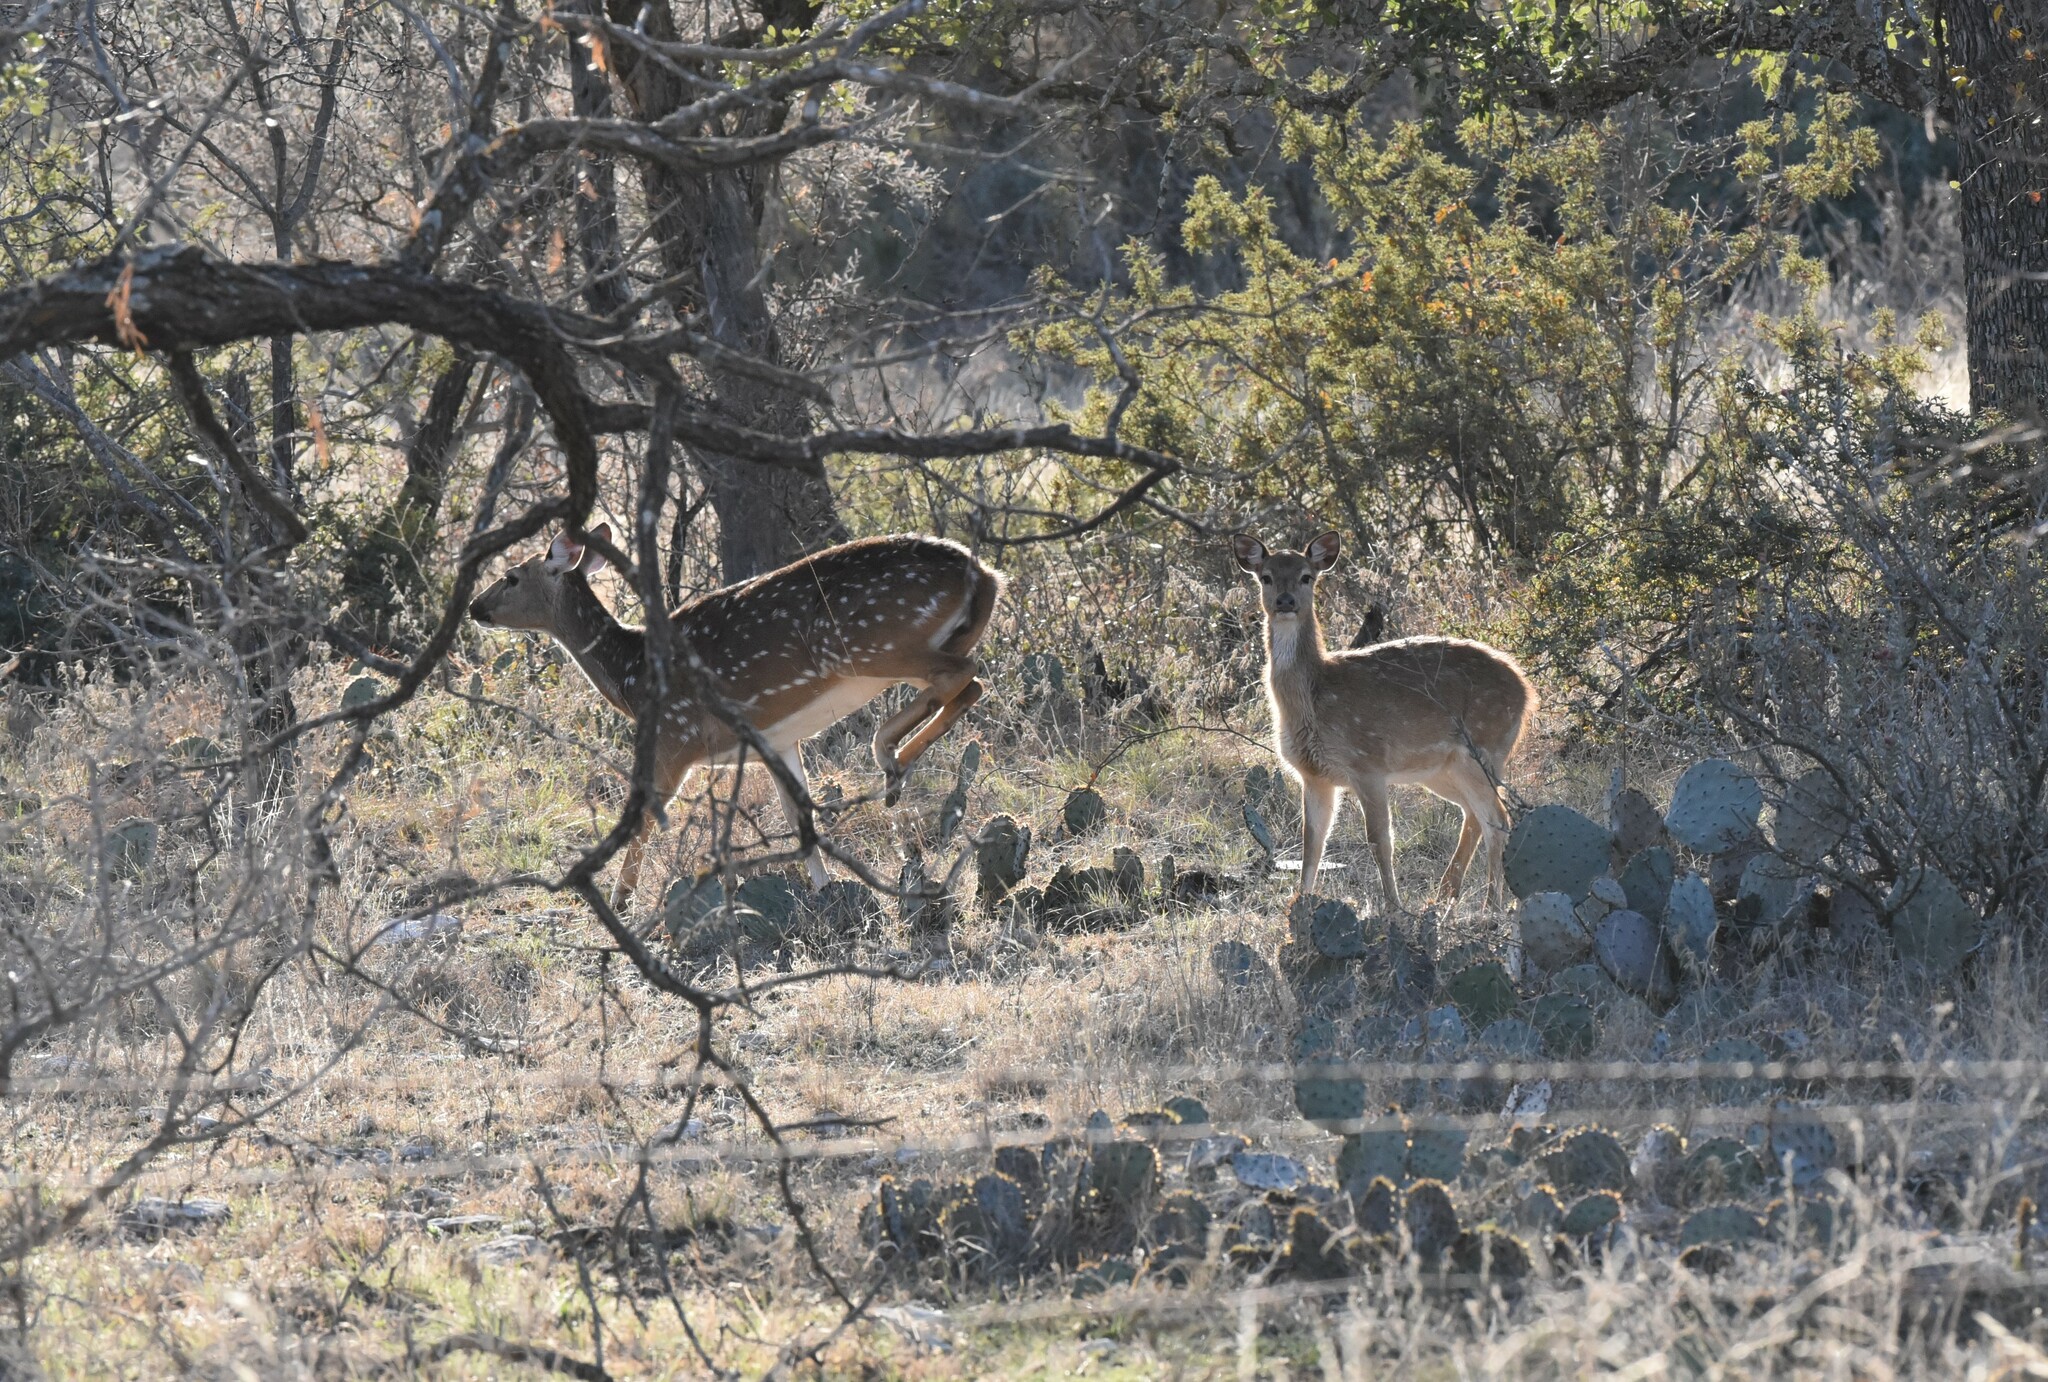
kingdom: Animalia
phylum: Chordata
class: Mammalia
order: Artiodactyla
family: Cervidae
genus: Axis
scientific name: Axis axis
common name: Chital
